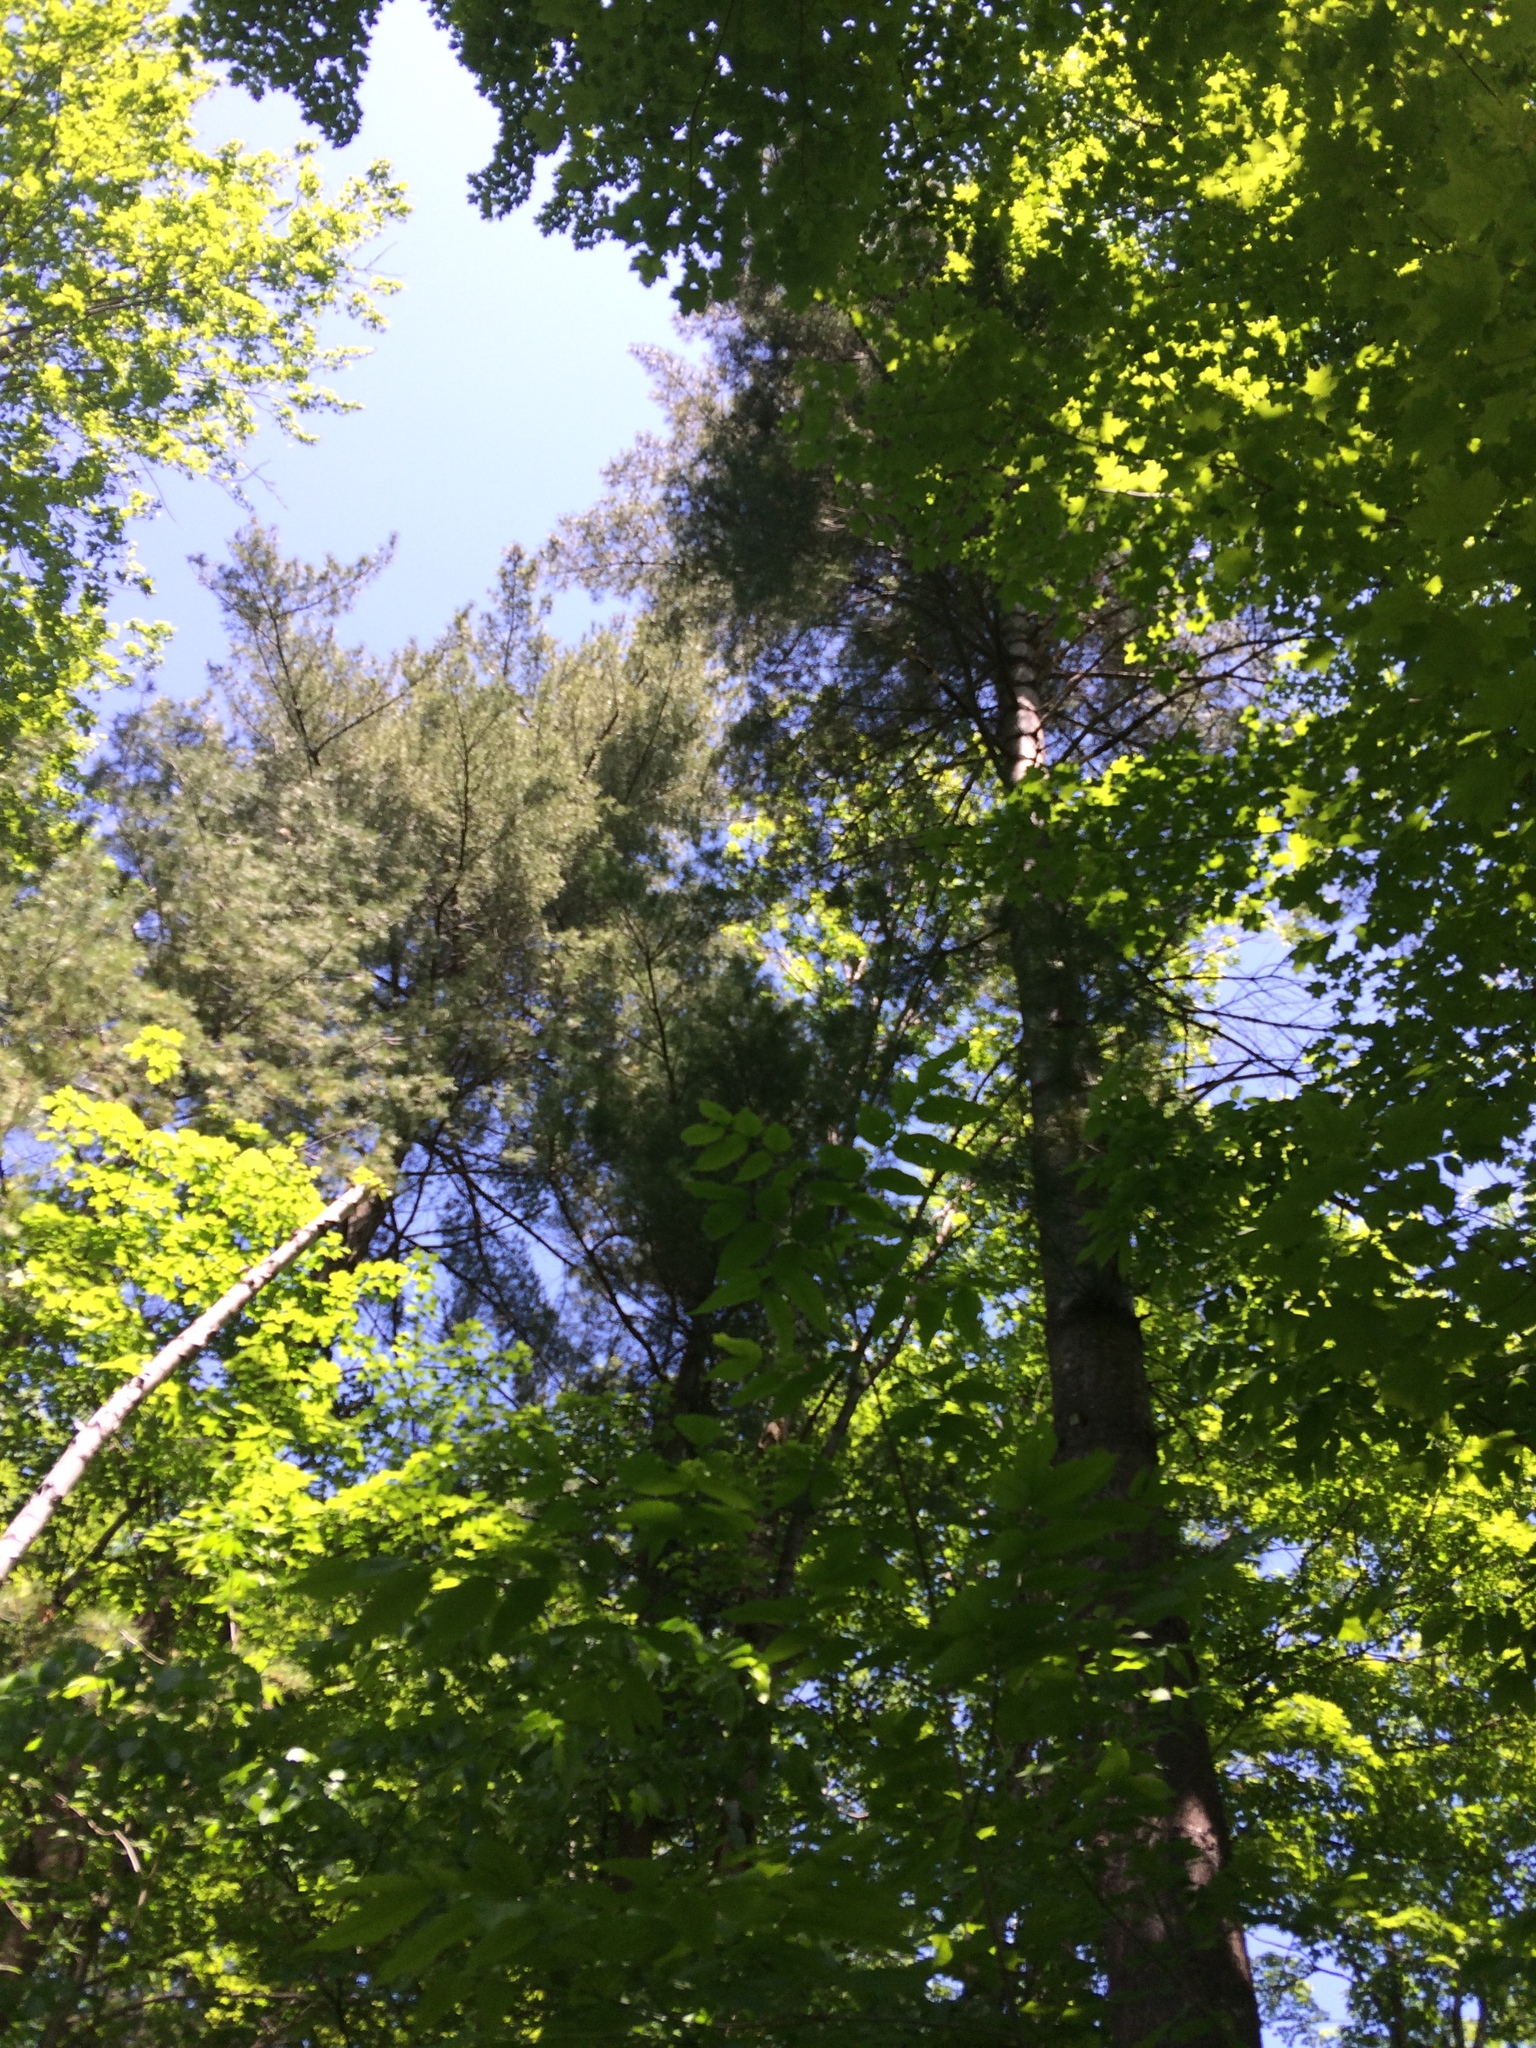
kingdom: Plantae
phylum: Tracheophyta
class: Pinopsida
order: Pinales
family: Pinaceae
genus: Pinus
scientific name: Pinus strobus
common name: Weymouth pine
